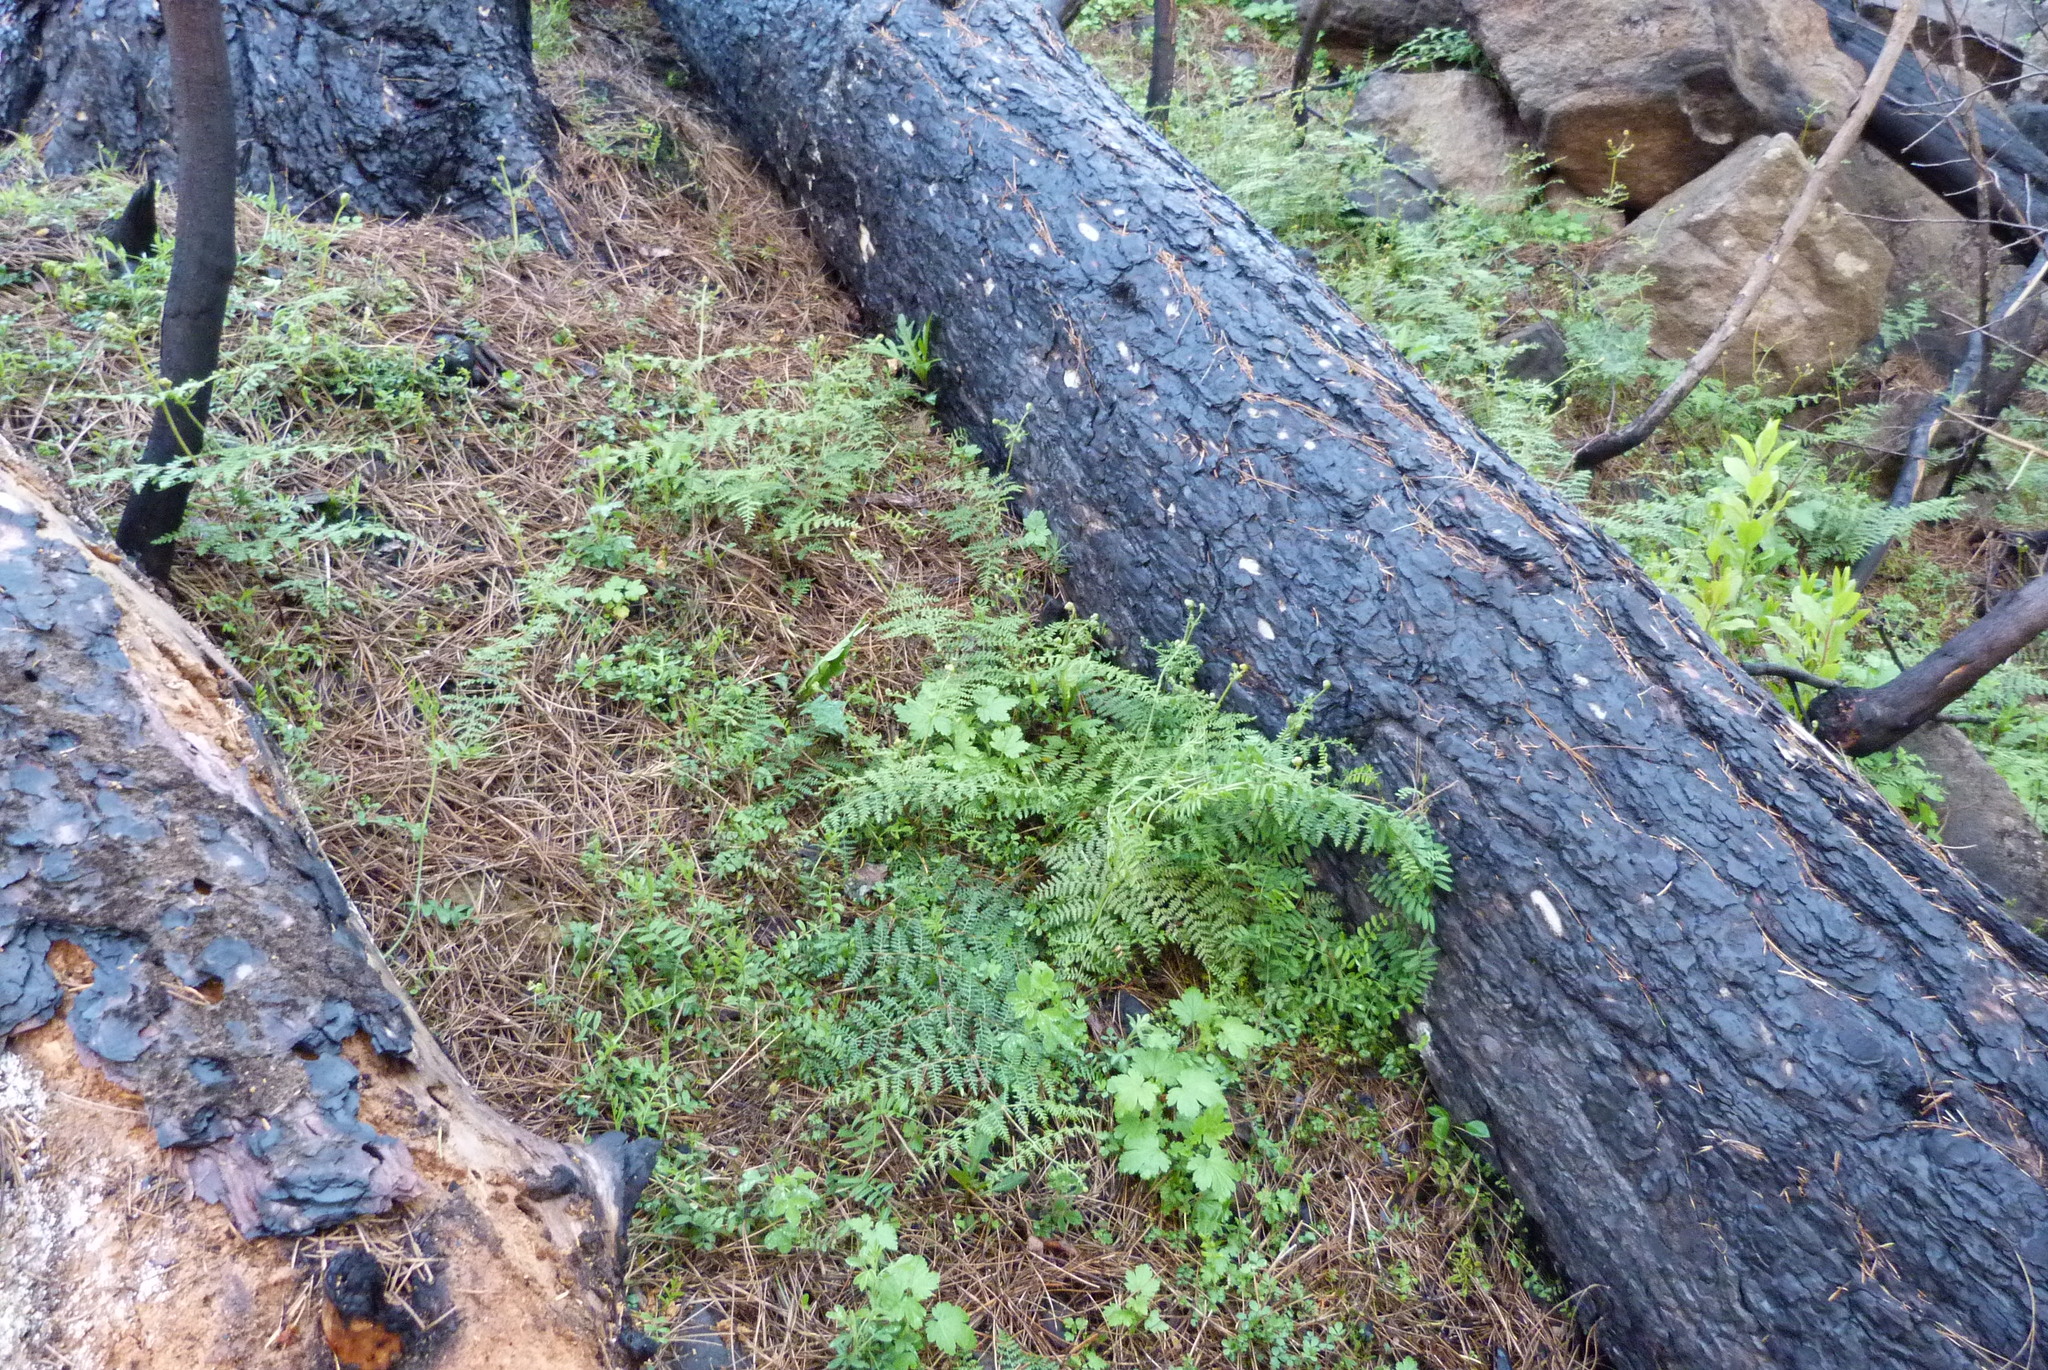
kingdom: Plantae
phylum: Tracheophyta
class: Polypodiopsida
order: Polypodiales
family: Dennstaedtiaceae
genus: Pteridium
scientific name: Pteridium esculentum
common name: Bracken fern
